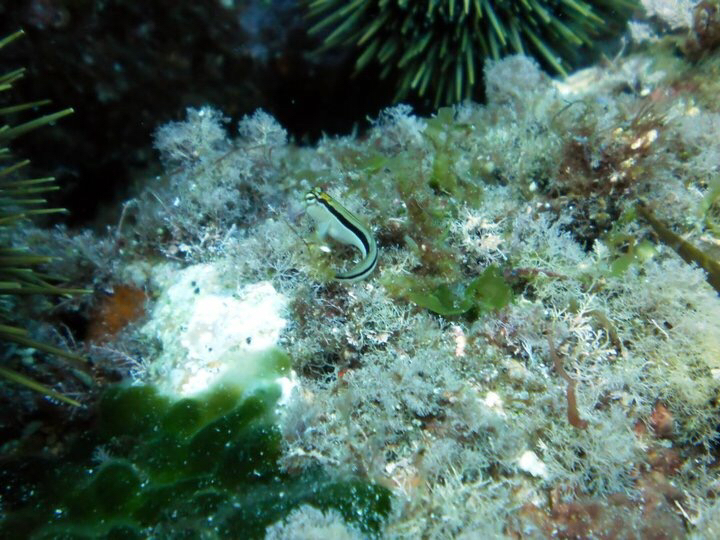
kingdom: Animalia
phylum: Chordata
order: Perciformes
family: Blenniidae
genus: Parablennius
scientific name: Parablennius laticlavius
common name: Crested blenny
